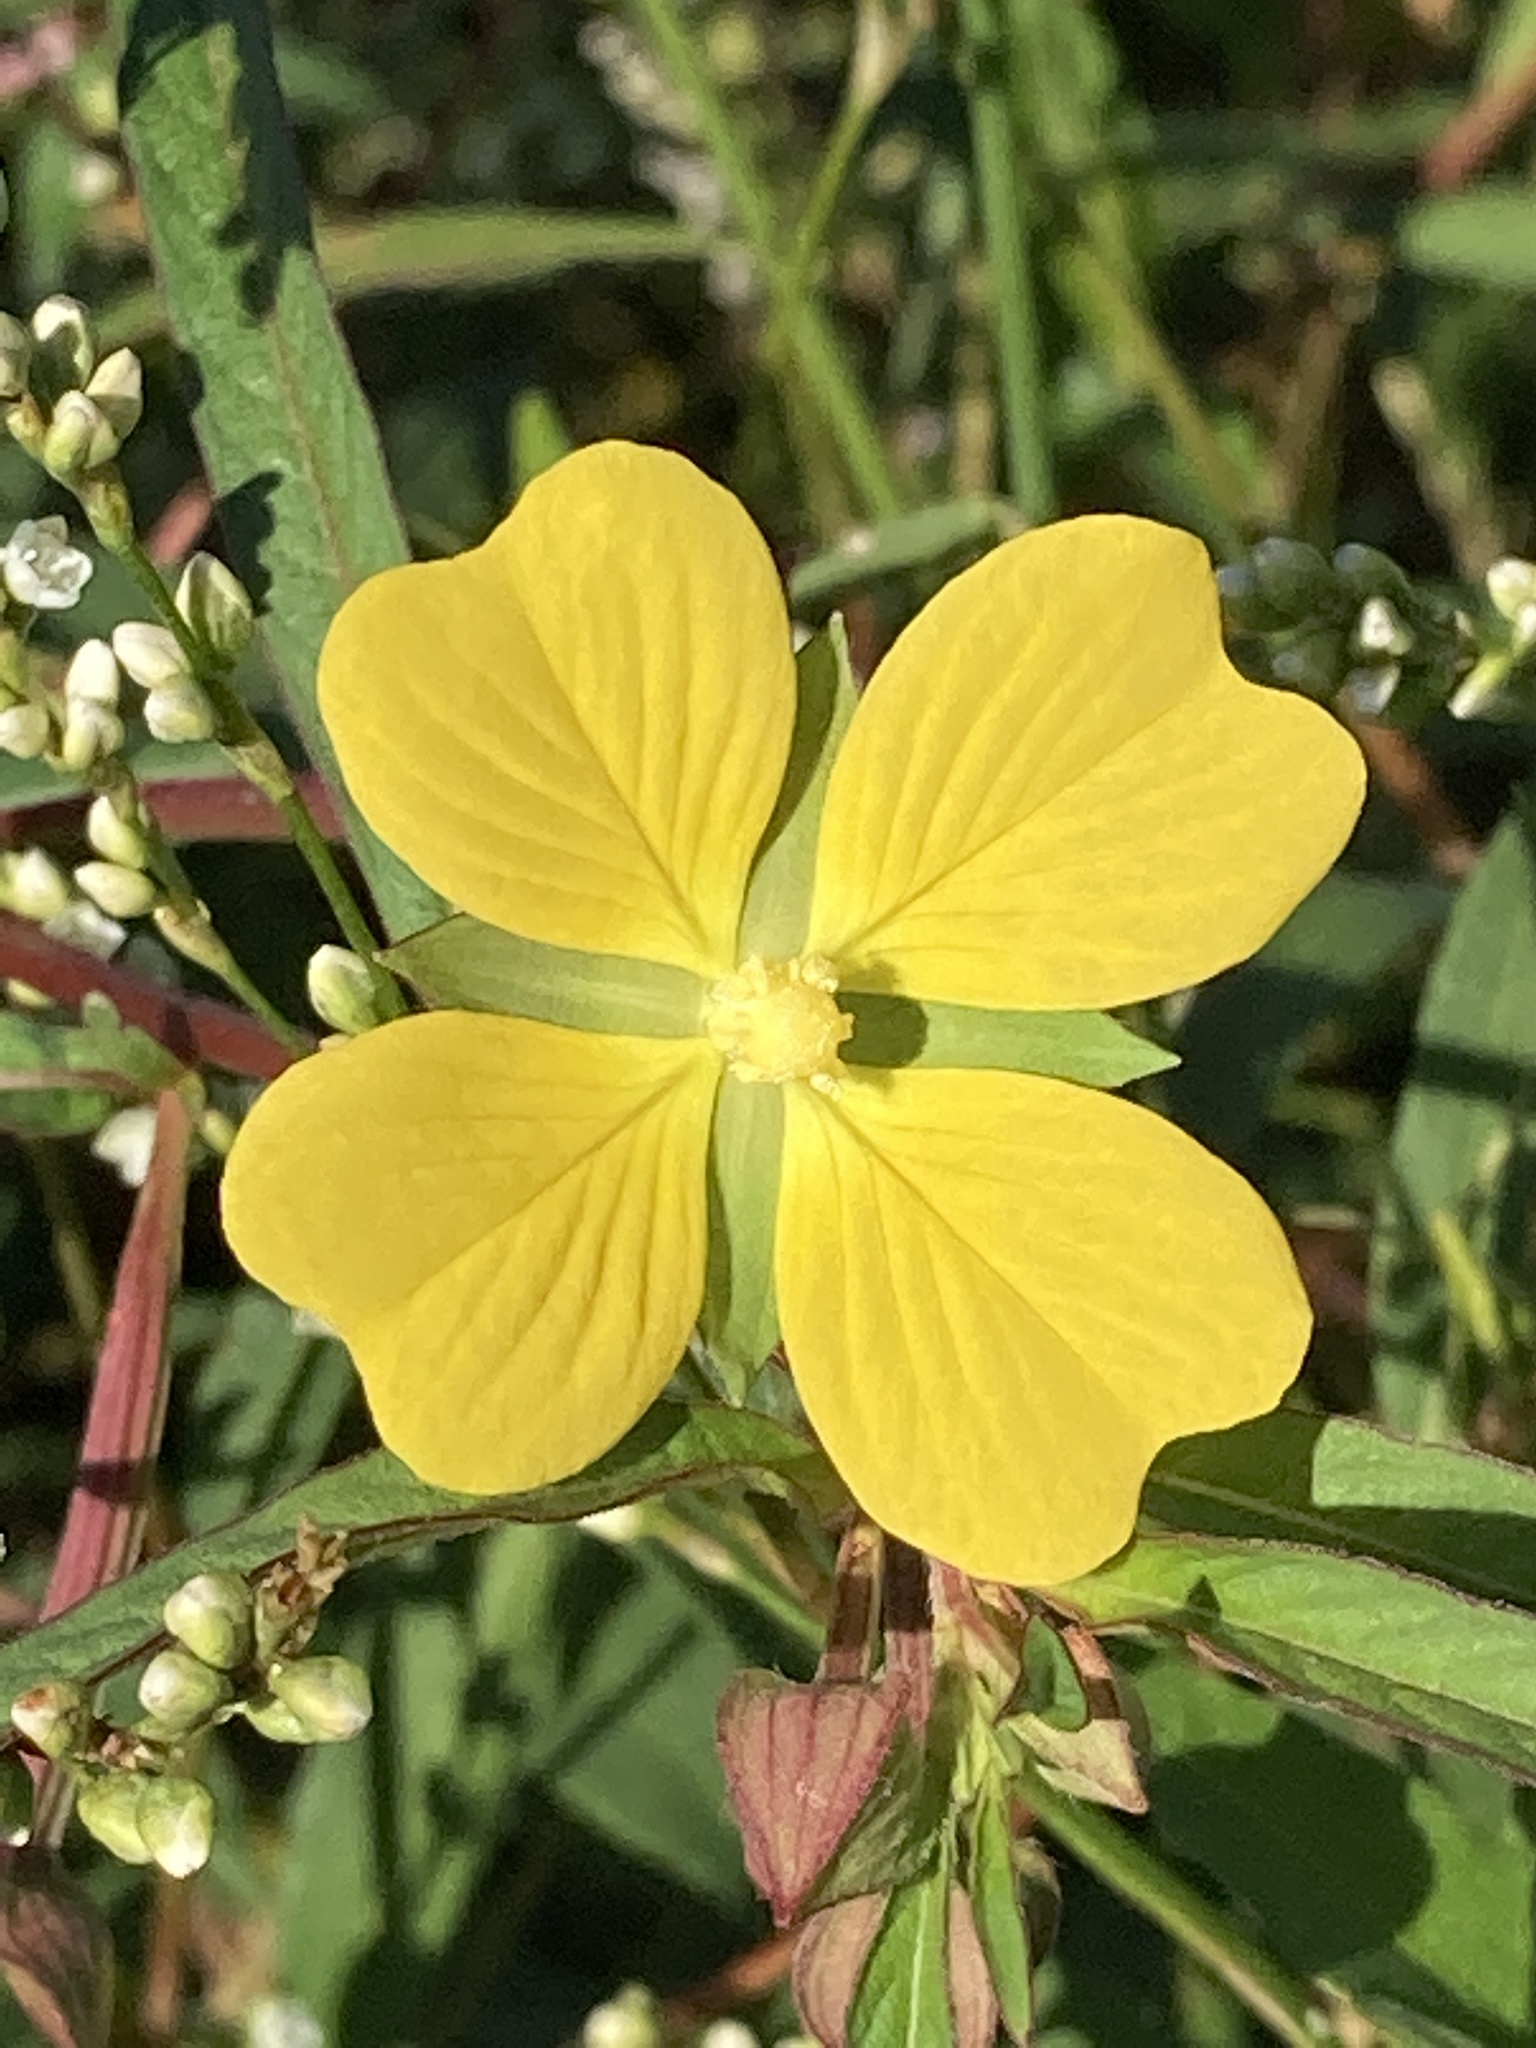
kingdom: Plantae
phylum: Tracheophyta
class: Magnoliopsida
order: Myrtales
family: Onagraceae
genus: Ludwigia
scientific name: Ludwigia octovalvis
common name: Water-primrose
